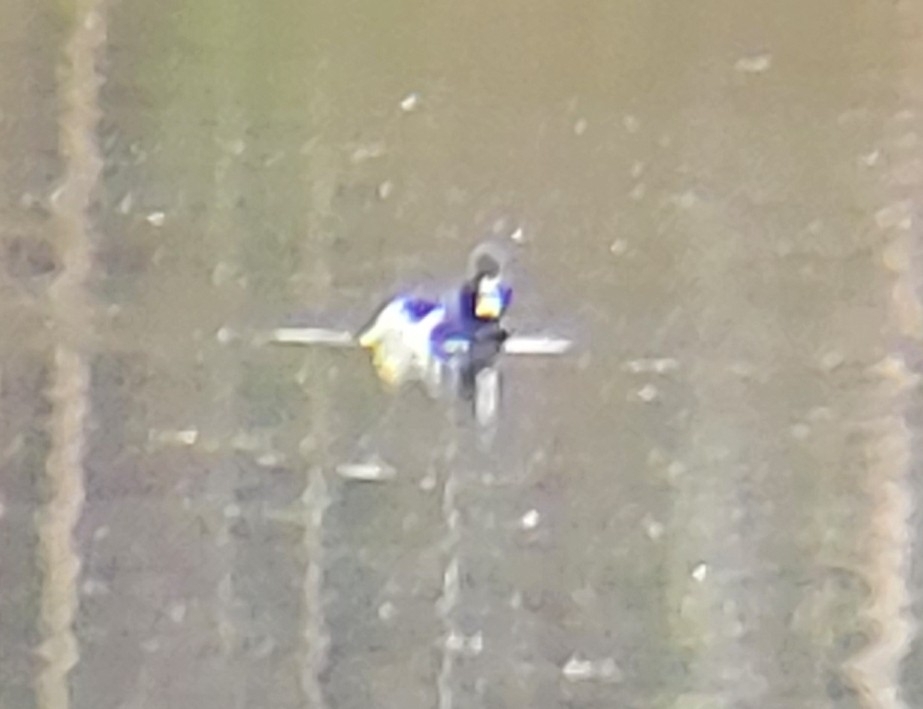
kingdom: Animalia
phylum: Chordata
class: Aves
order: Anseriformes
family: Anatidae
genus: Aythya
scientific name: Aythya collaris
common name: Ring-necked duck
